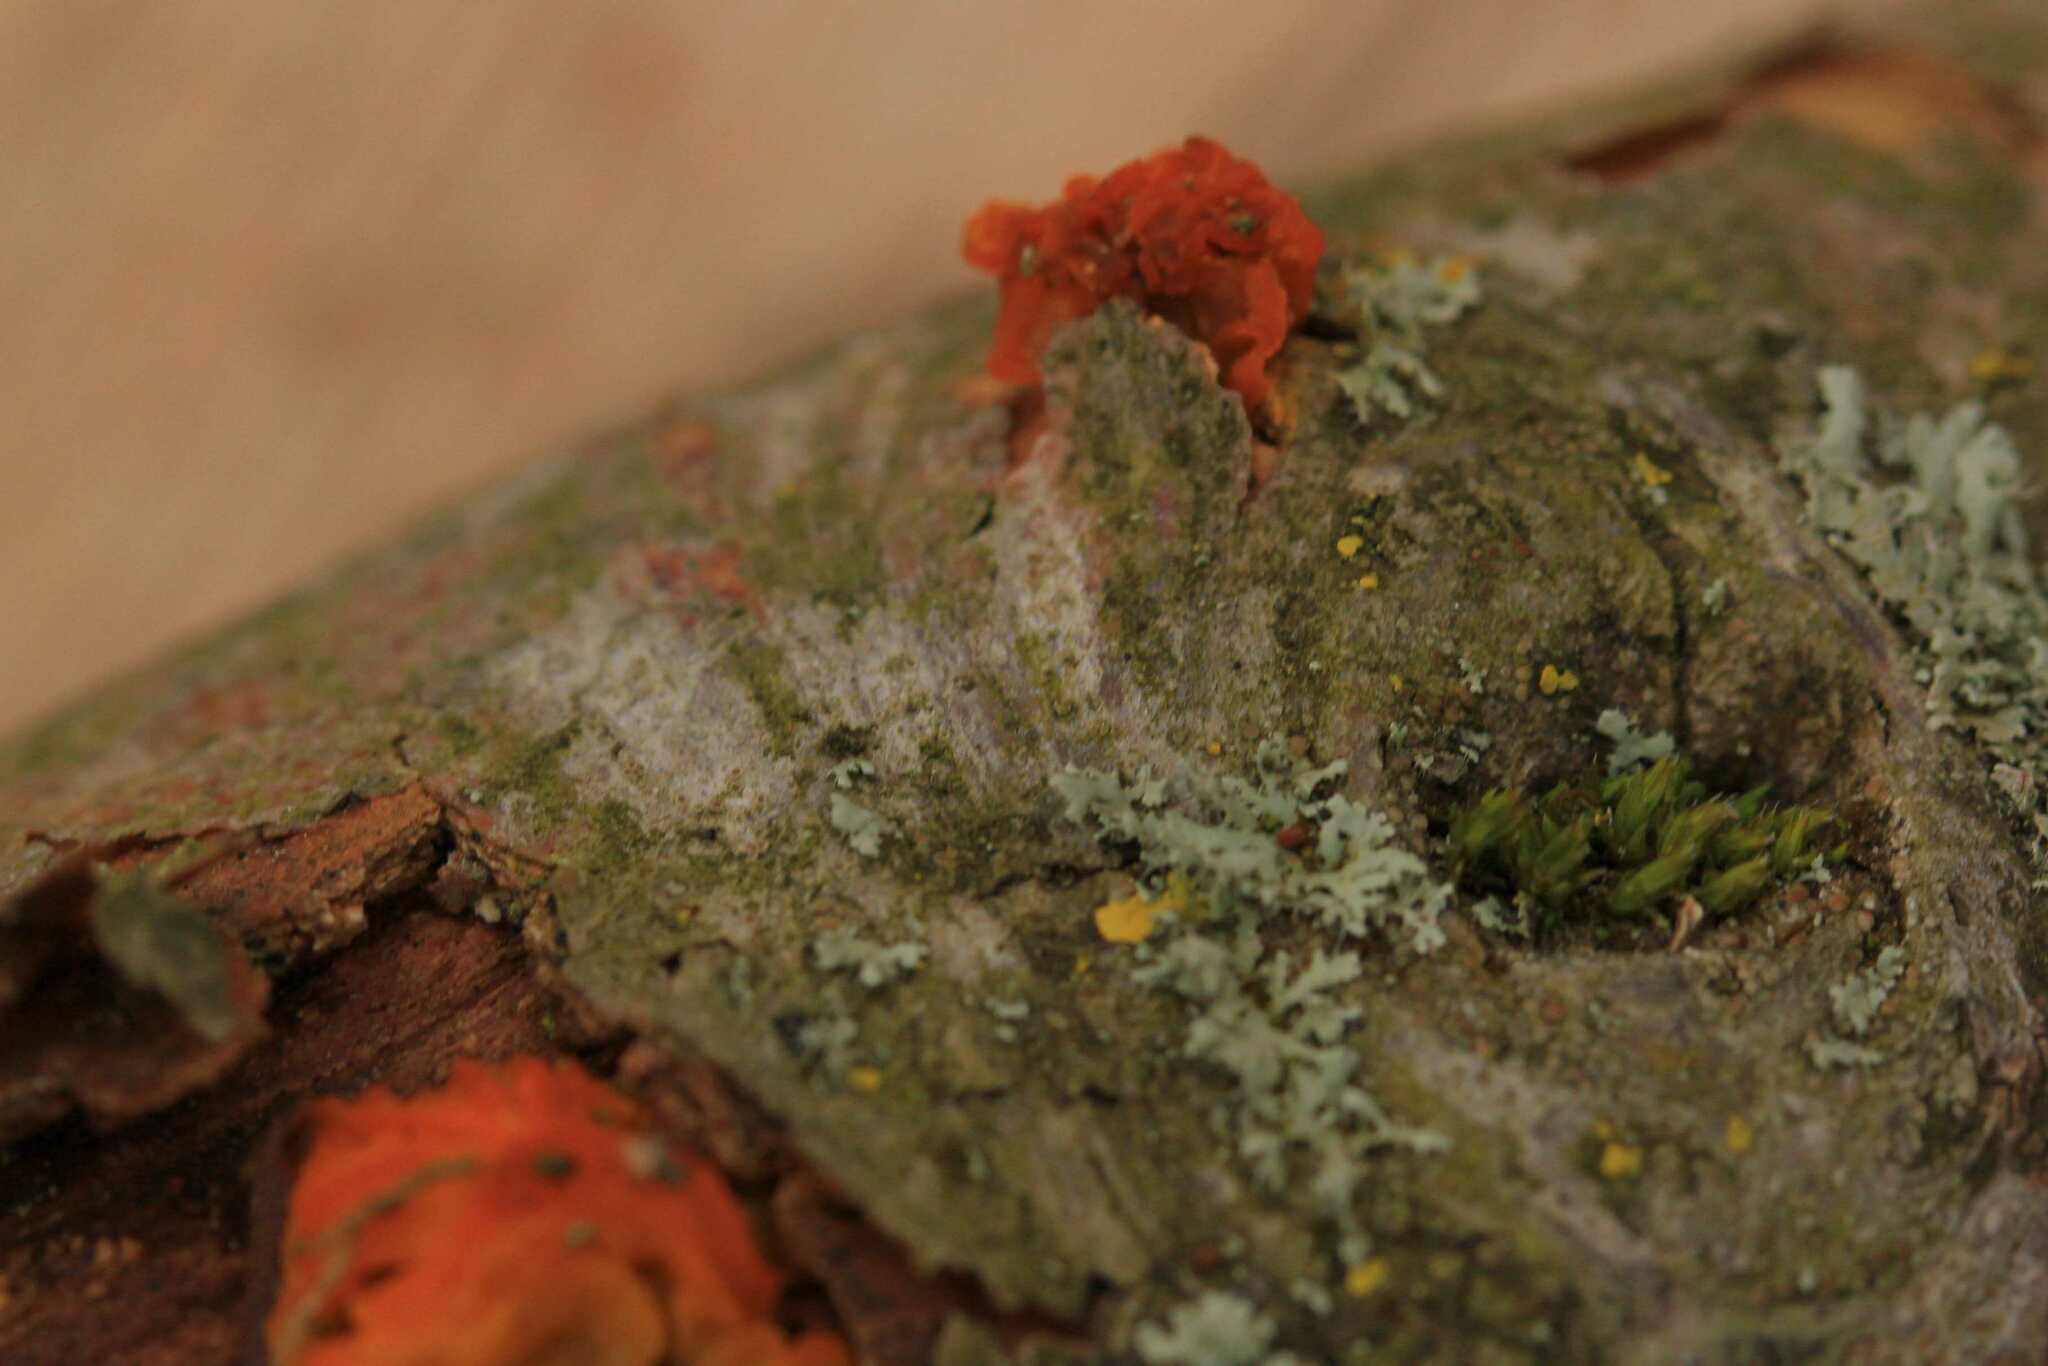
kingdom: Fungi
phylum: Basidiomycota
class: Tremellomycetes
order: Tremellales
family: Tremellaceae
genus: Tremella
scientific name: Tremella mesenterica
